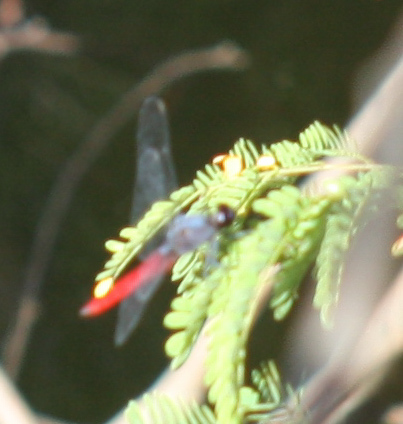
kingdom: Animalia
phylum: Arthropoda
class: Insecta
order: Odonata
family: Libellulidae
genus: Erythemis
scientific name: Erythemis peruviana
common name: Flame-tailed pondhawk
